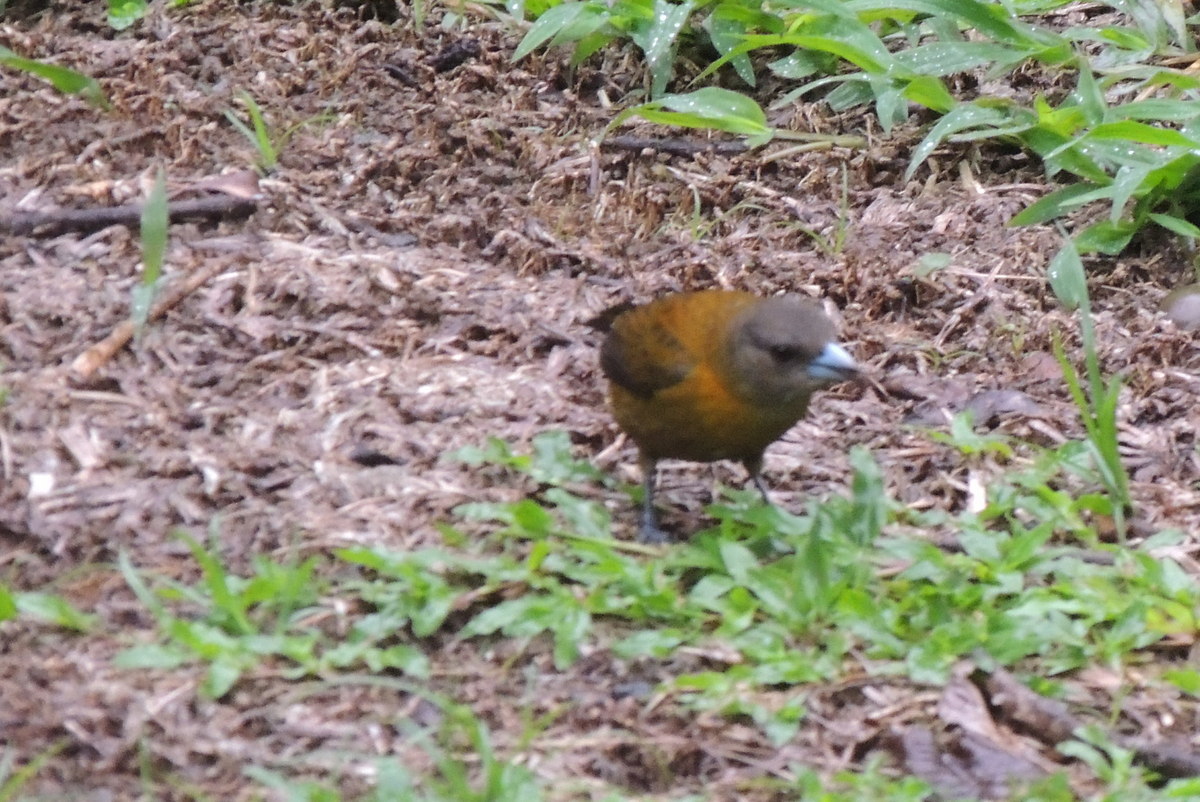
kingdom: Animalia
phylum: Chordata
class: Aves
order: Passeriformes
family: Thraupidae
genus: Ramphocelus
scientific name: Ramphocelus passerinii
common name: Passerini's tanager
